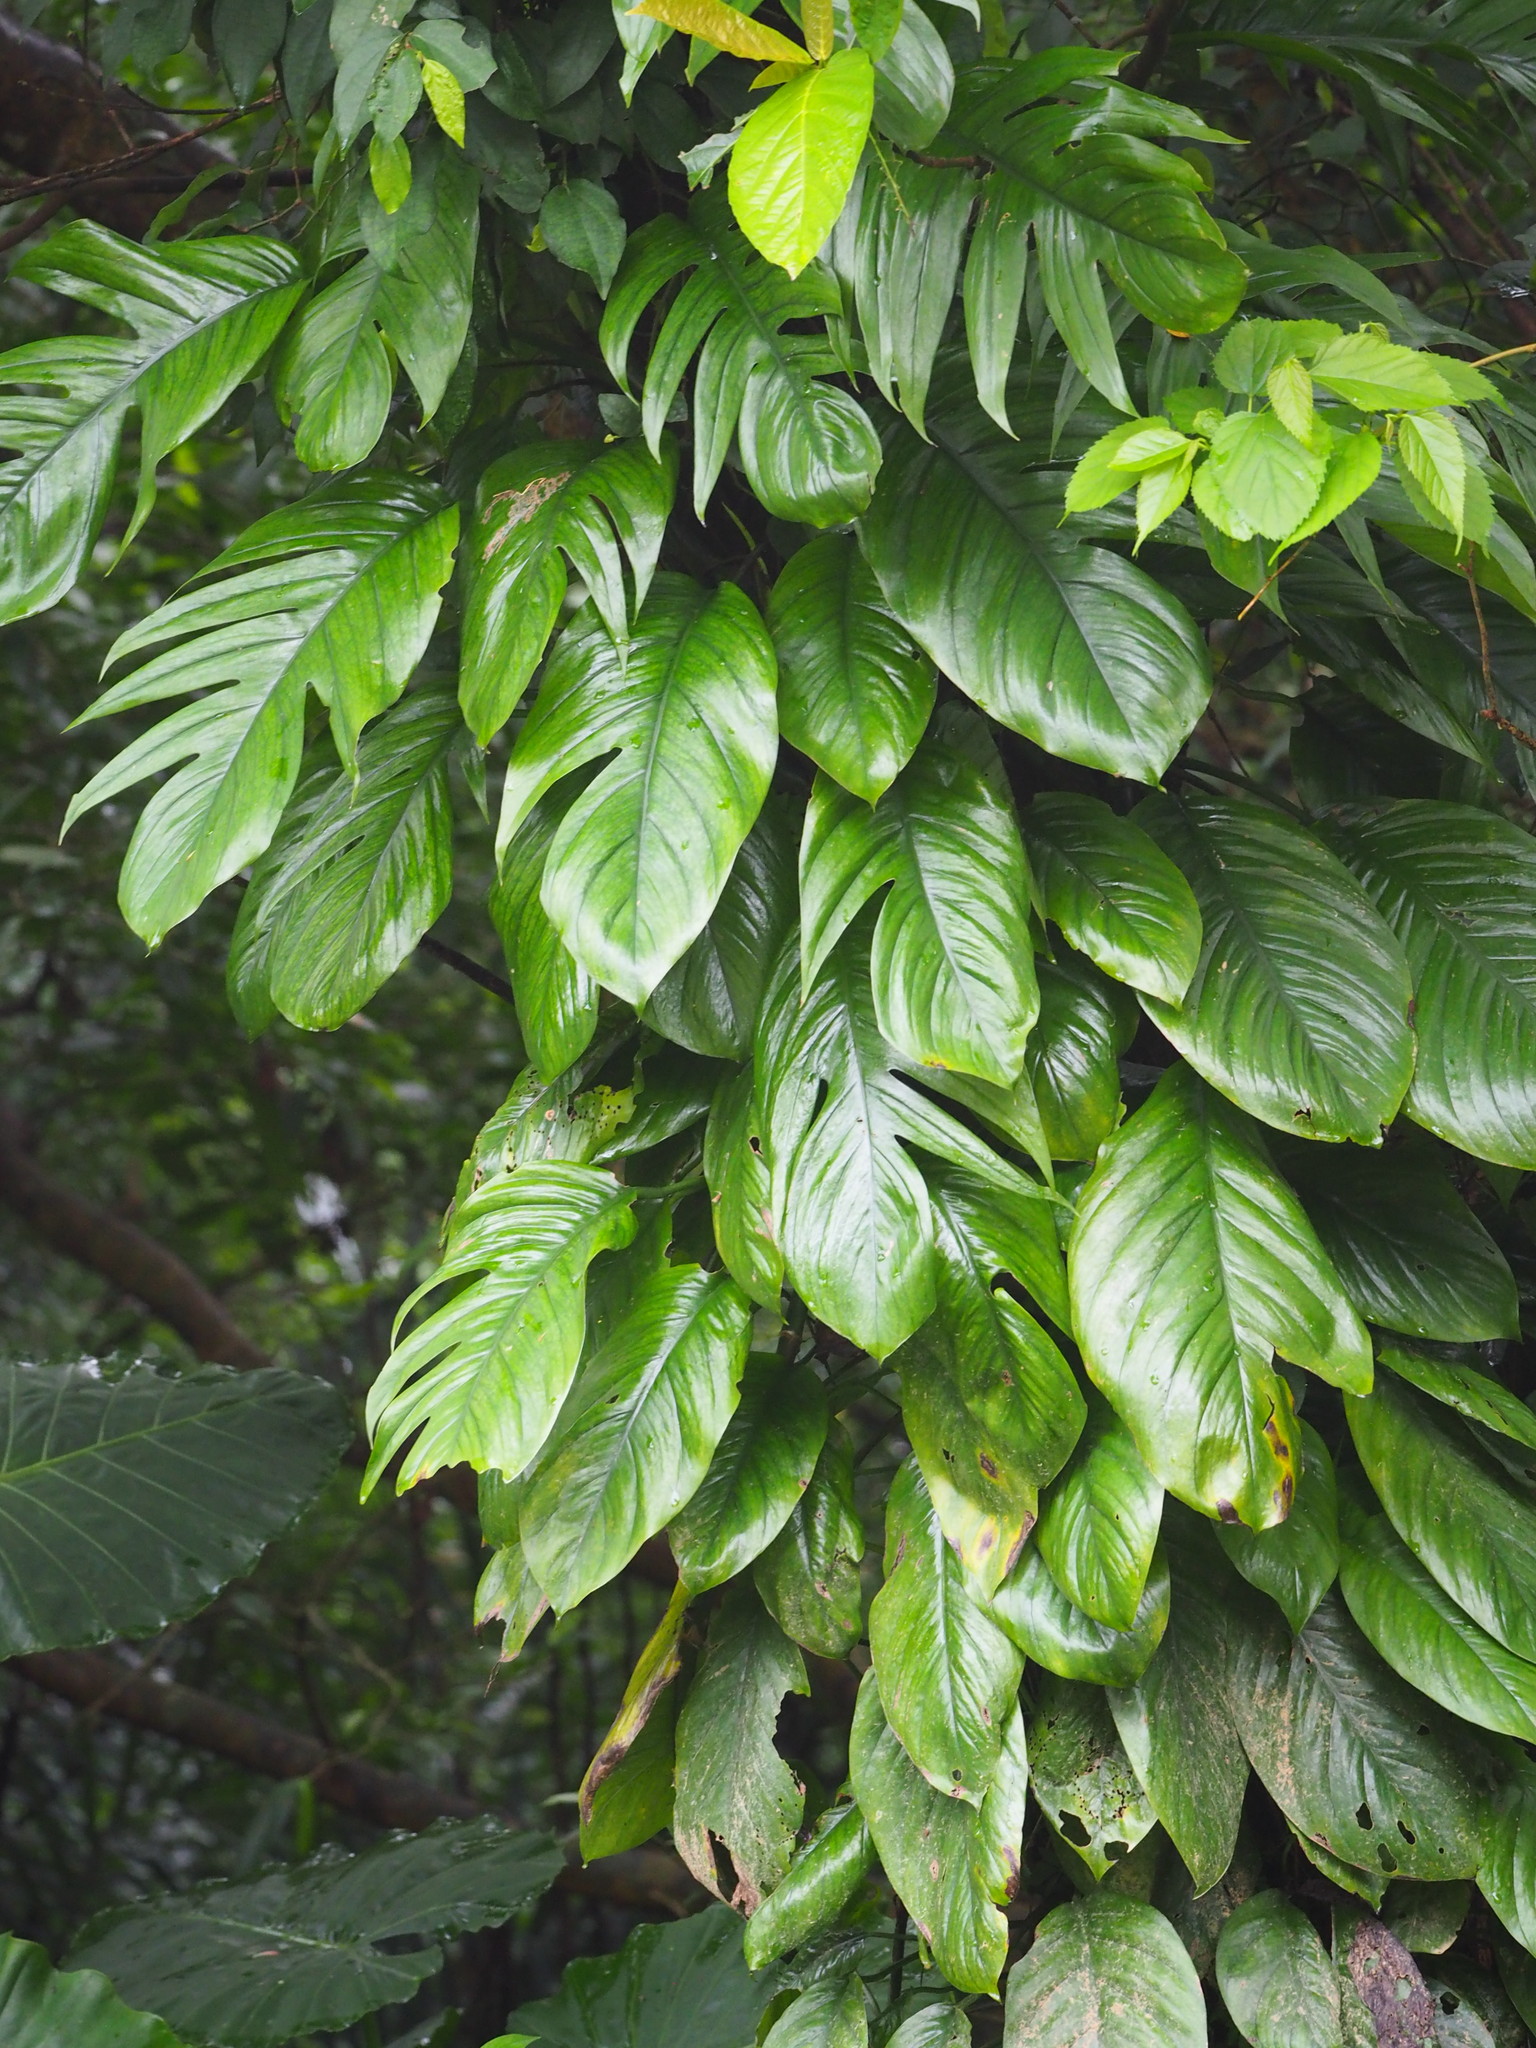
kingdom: Plantae
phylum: Tracheophyta
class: Liliopsida
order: Alismatales
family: Araceae
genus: Epipremnum
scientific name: Epipremnum pinnatum
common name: Centipede tongavine
